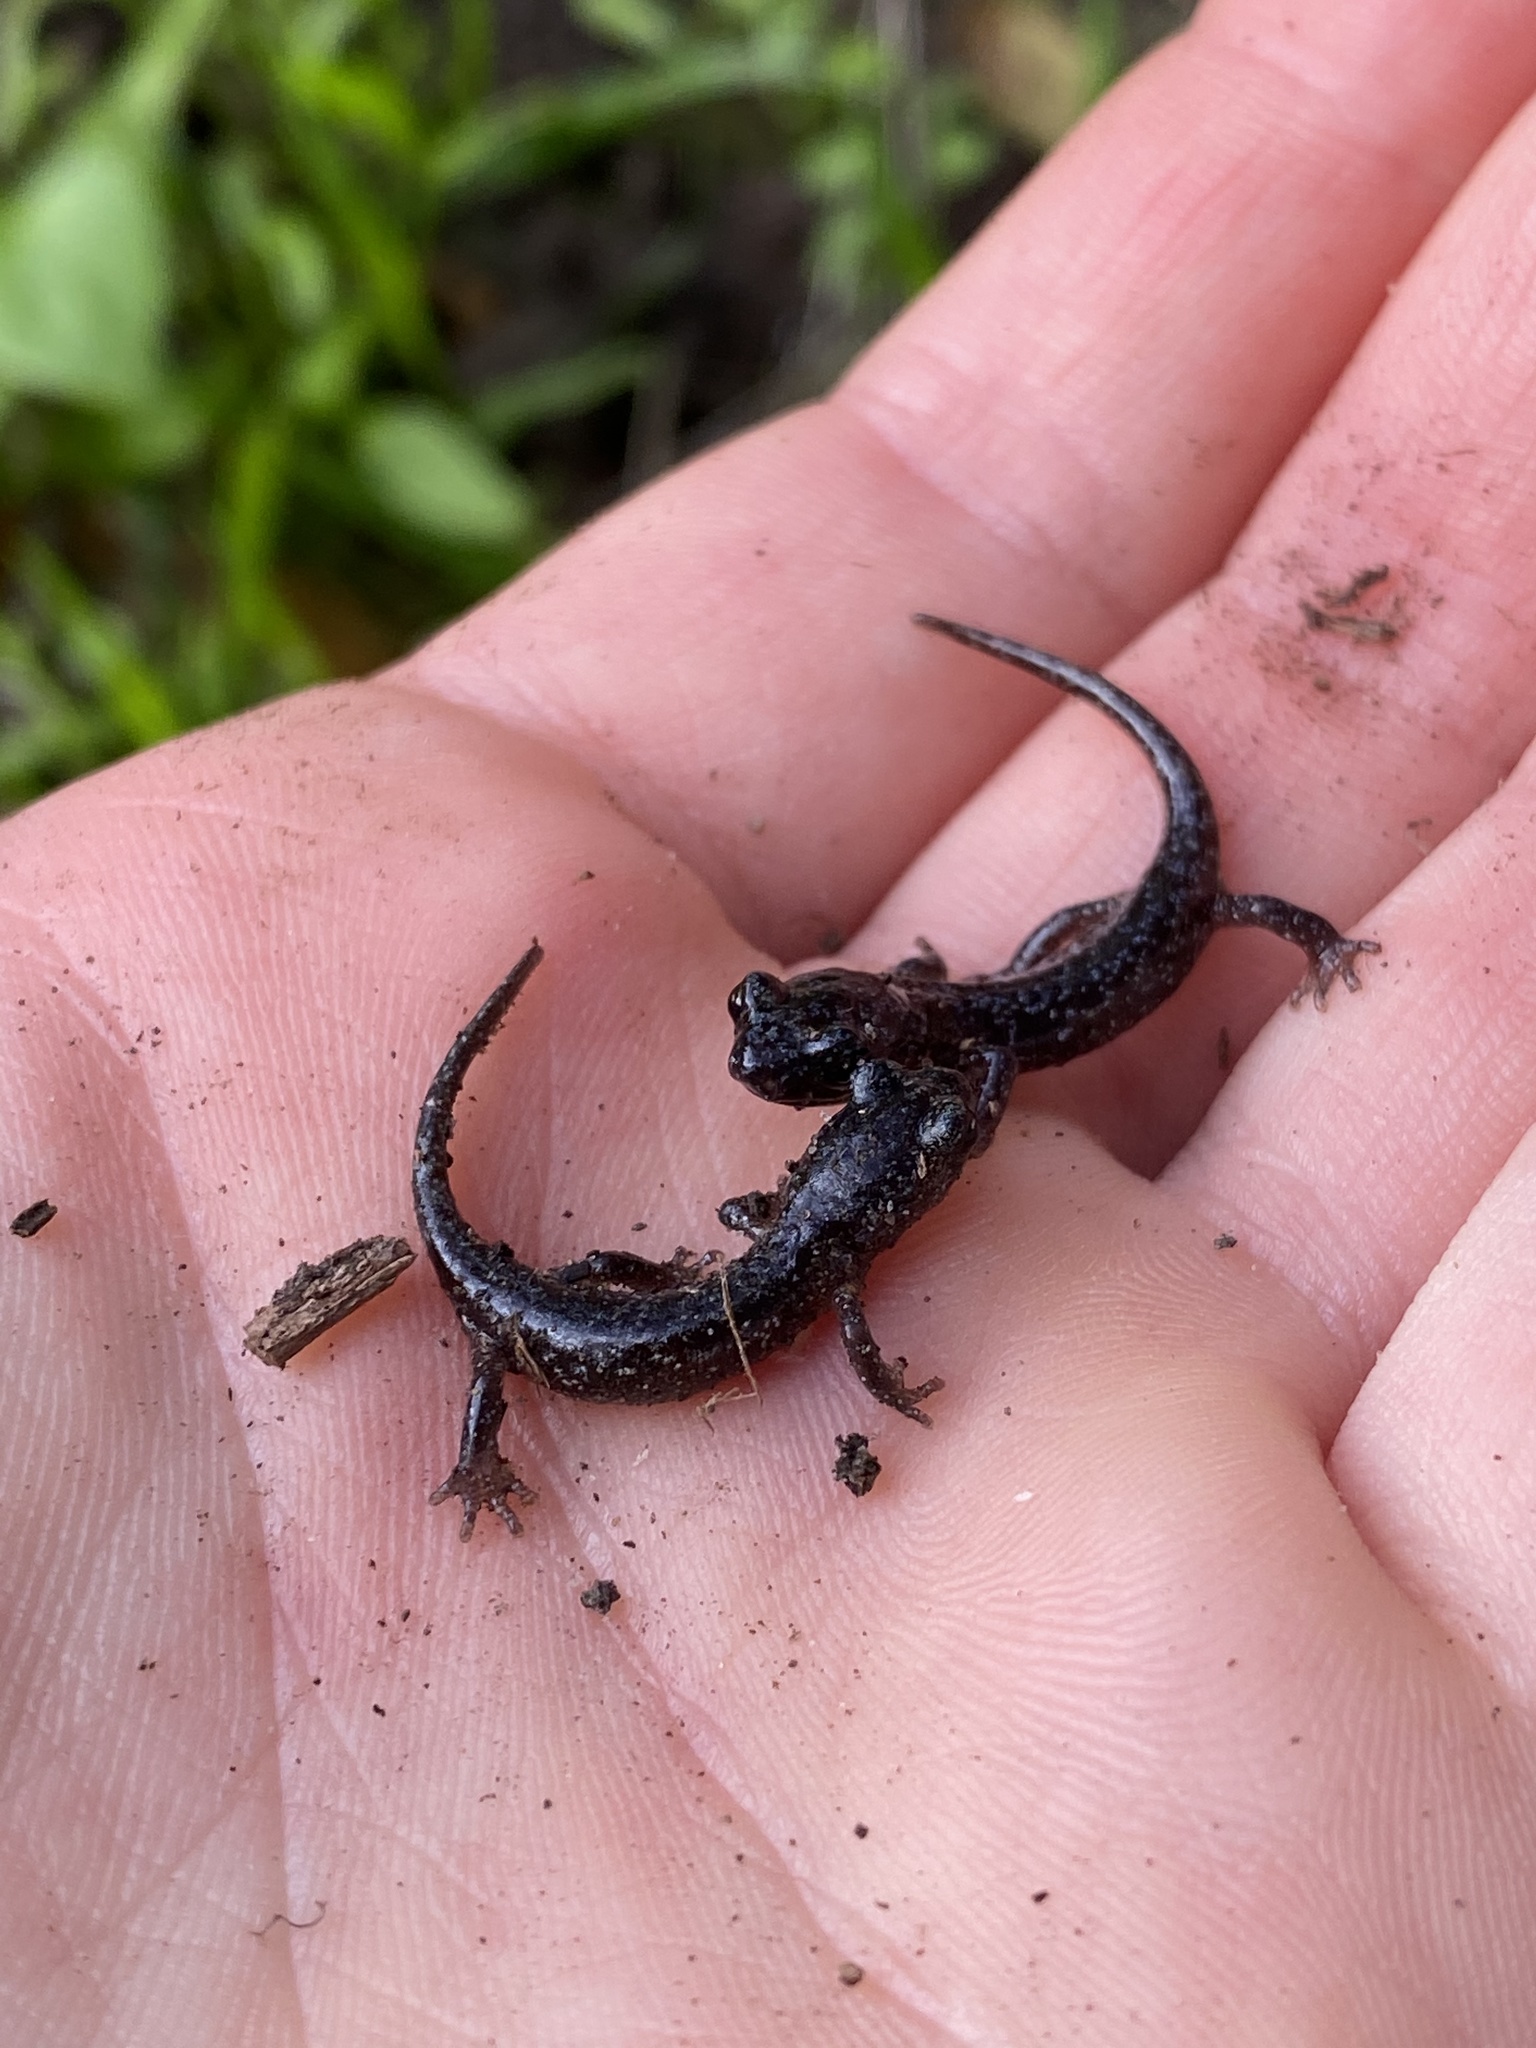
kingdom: Animalia
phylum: Chordata
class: Amphibia
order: Caudata
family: Plethodontidae
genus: Aneides
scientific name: Aneides lugubris
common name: Arboreal salamander
